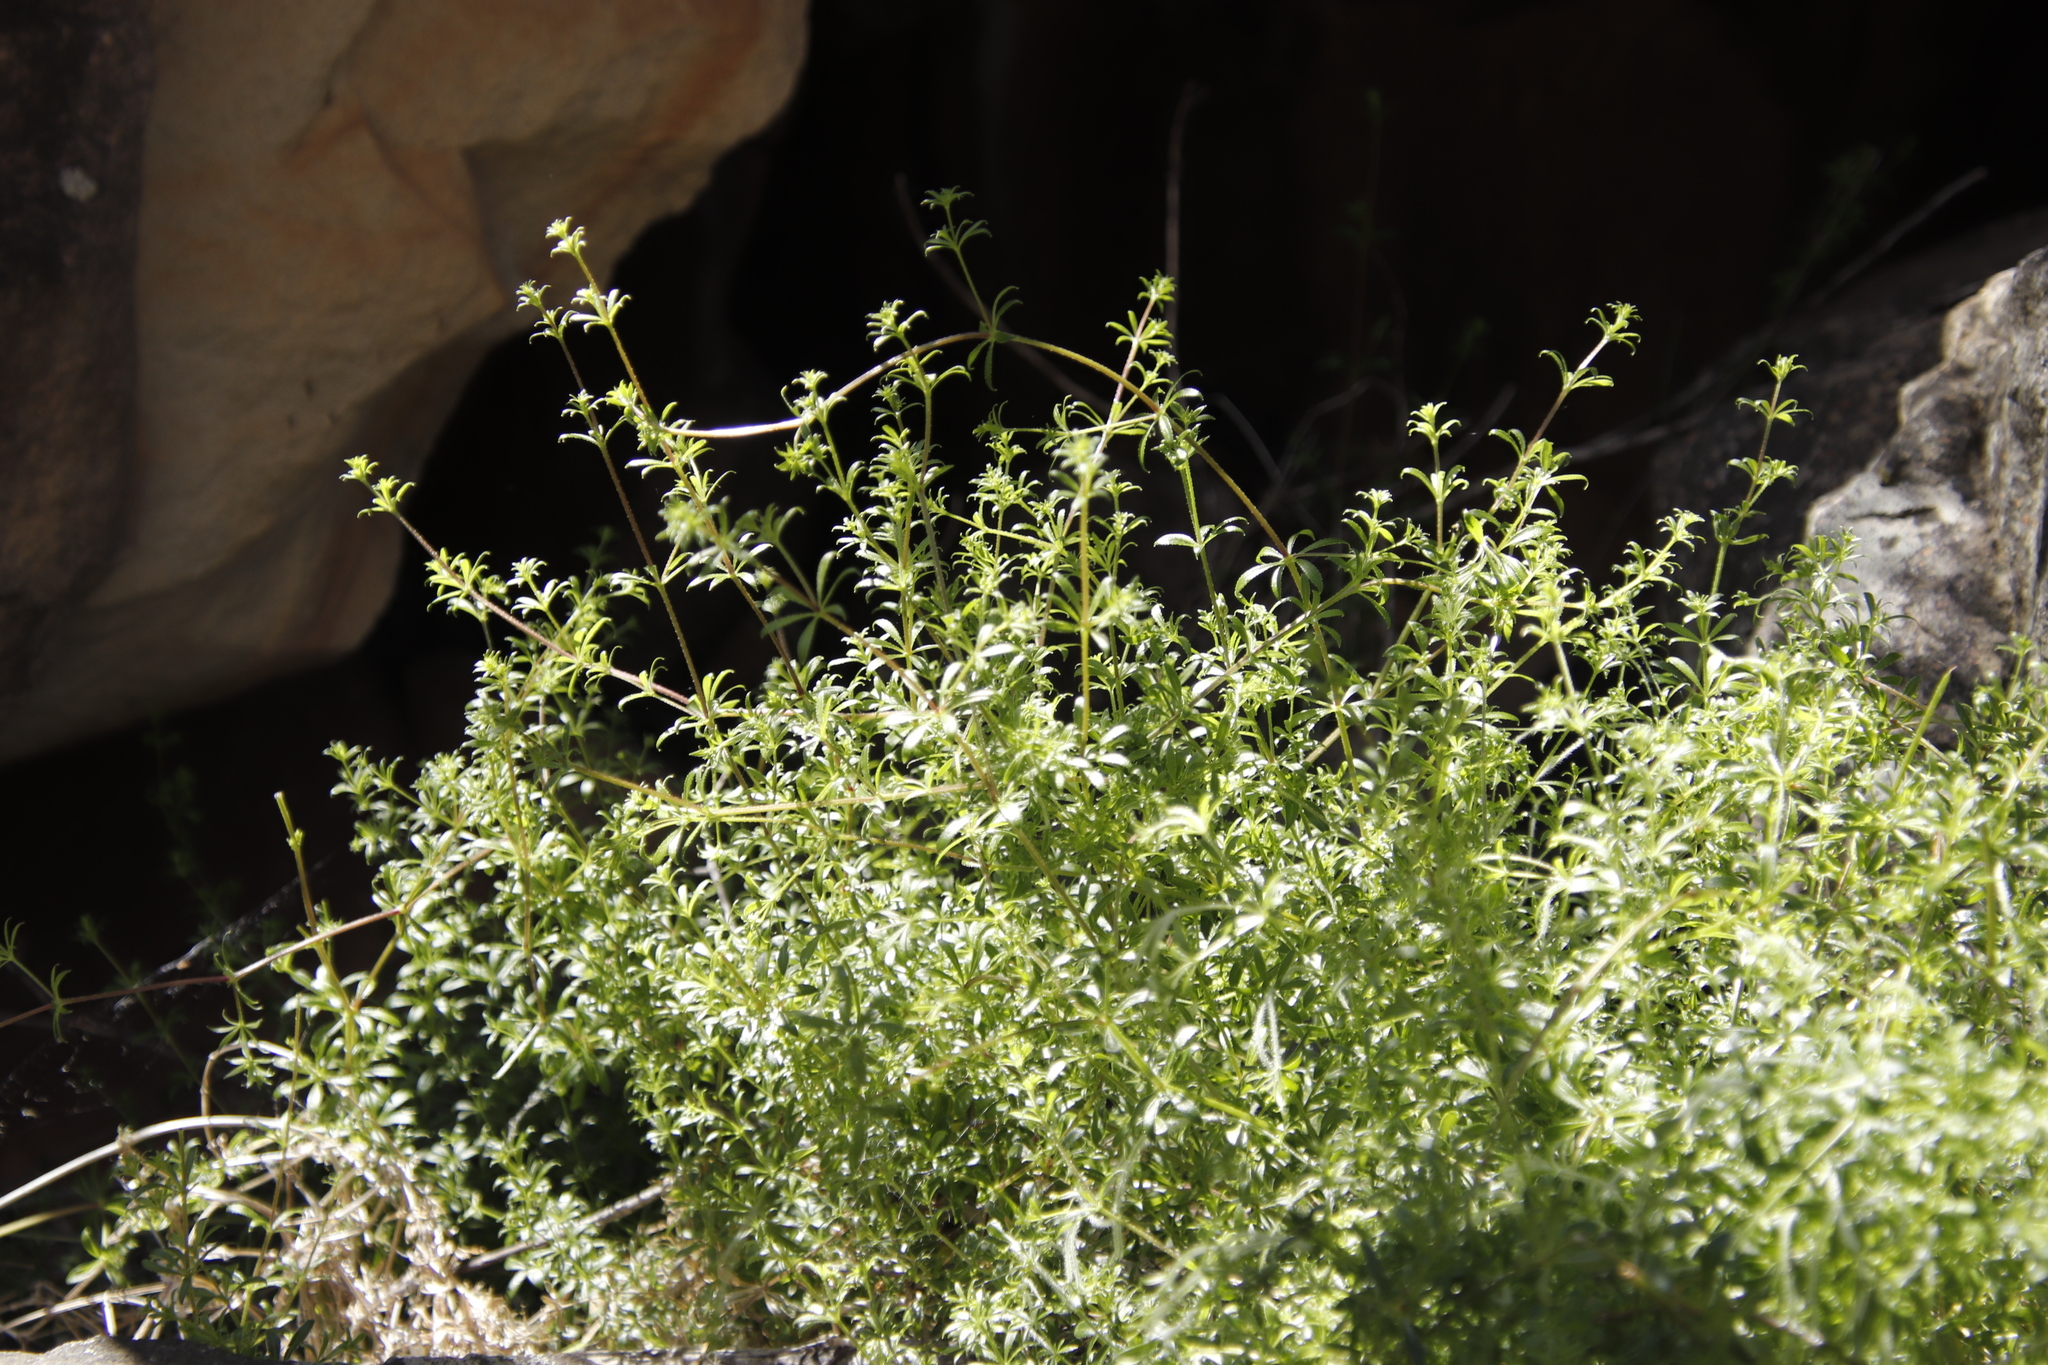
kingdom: Plantae
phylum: Tracheophyta
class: Magnoliopsida
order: Gentianales
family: Rubiaceae
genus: Galium
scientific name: Galium tomentosum
